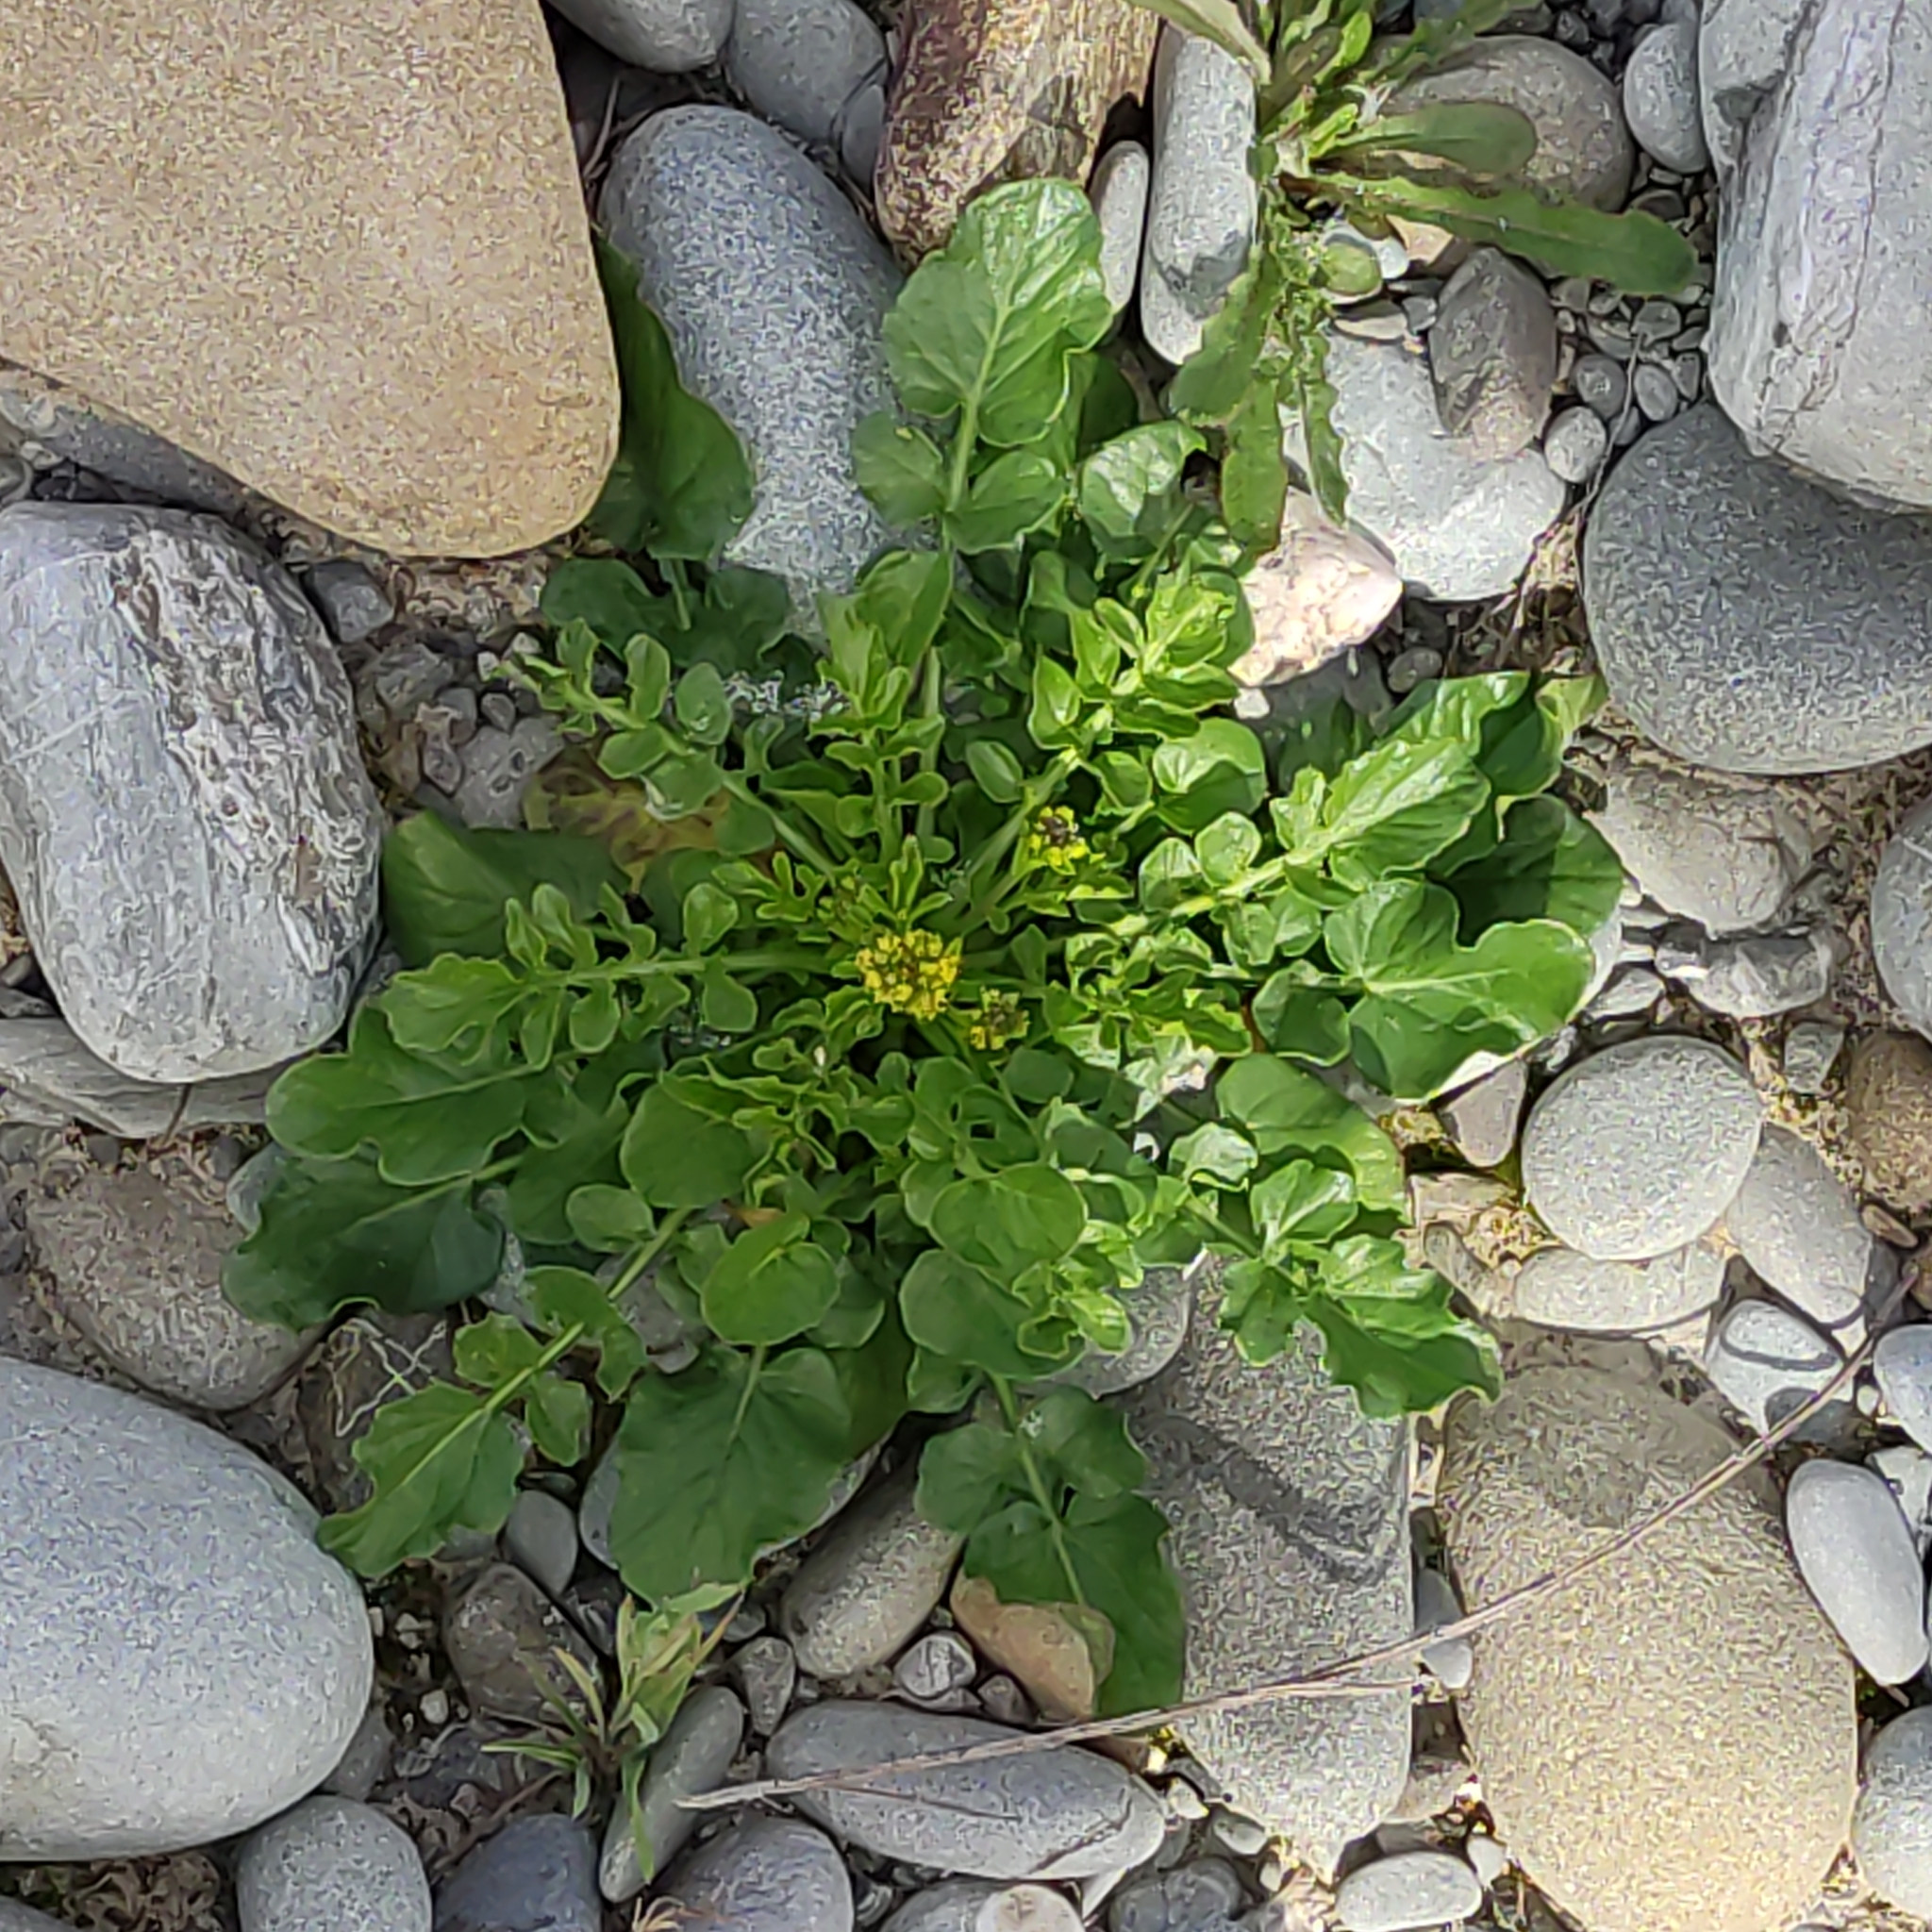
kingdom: Plantae
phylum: Tracheophyta
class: Magnoliopsida
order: Brassicales
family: Brassicaceae
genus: Barbarea
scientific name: Barbarea intermedia
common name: Medium-flowered winter-cress
